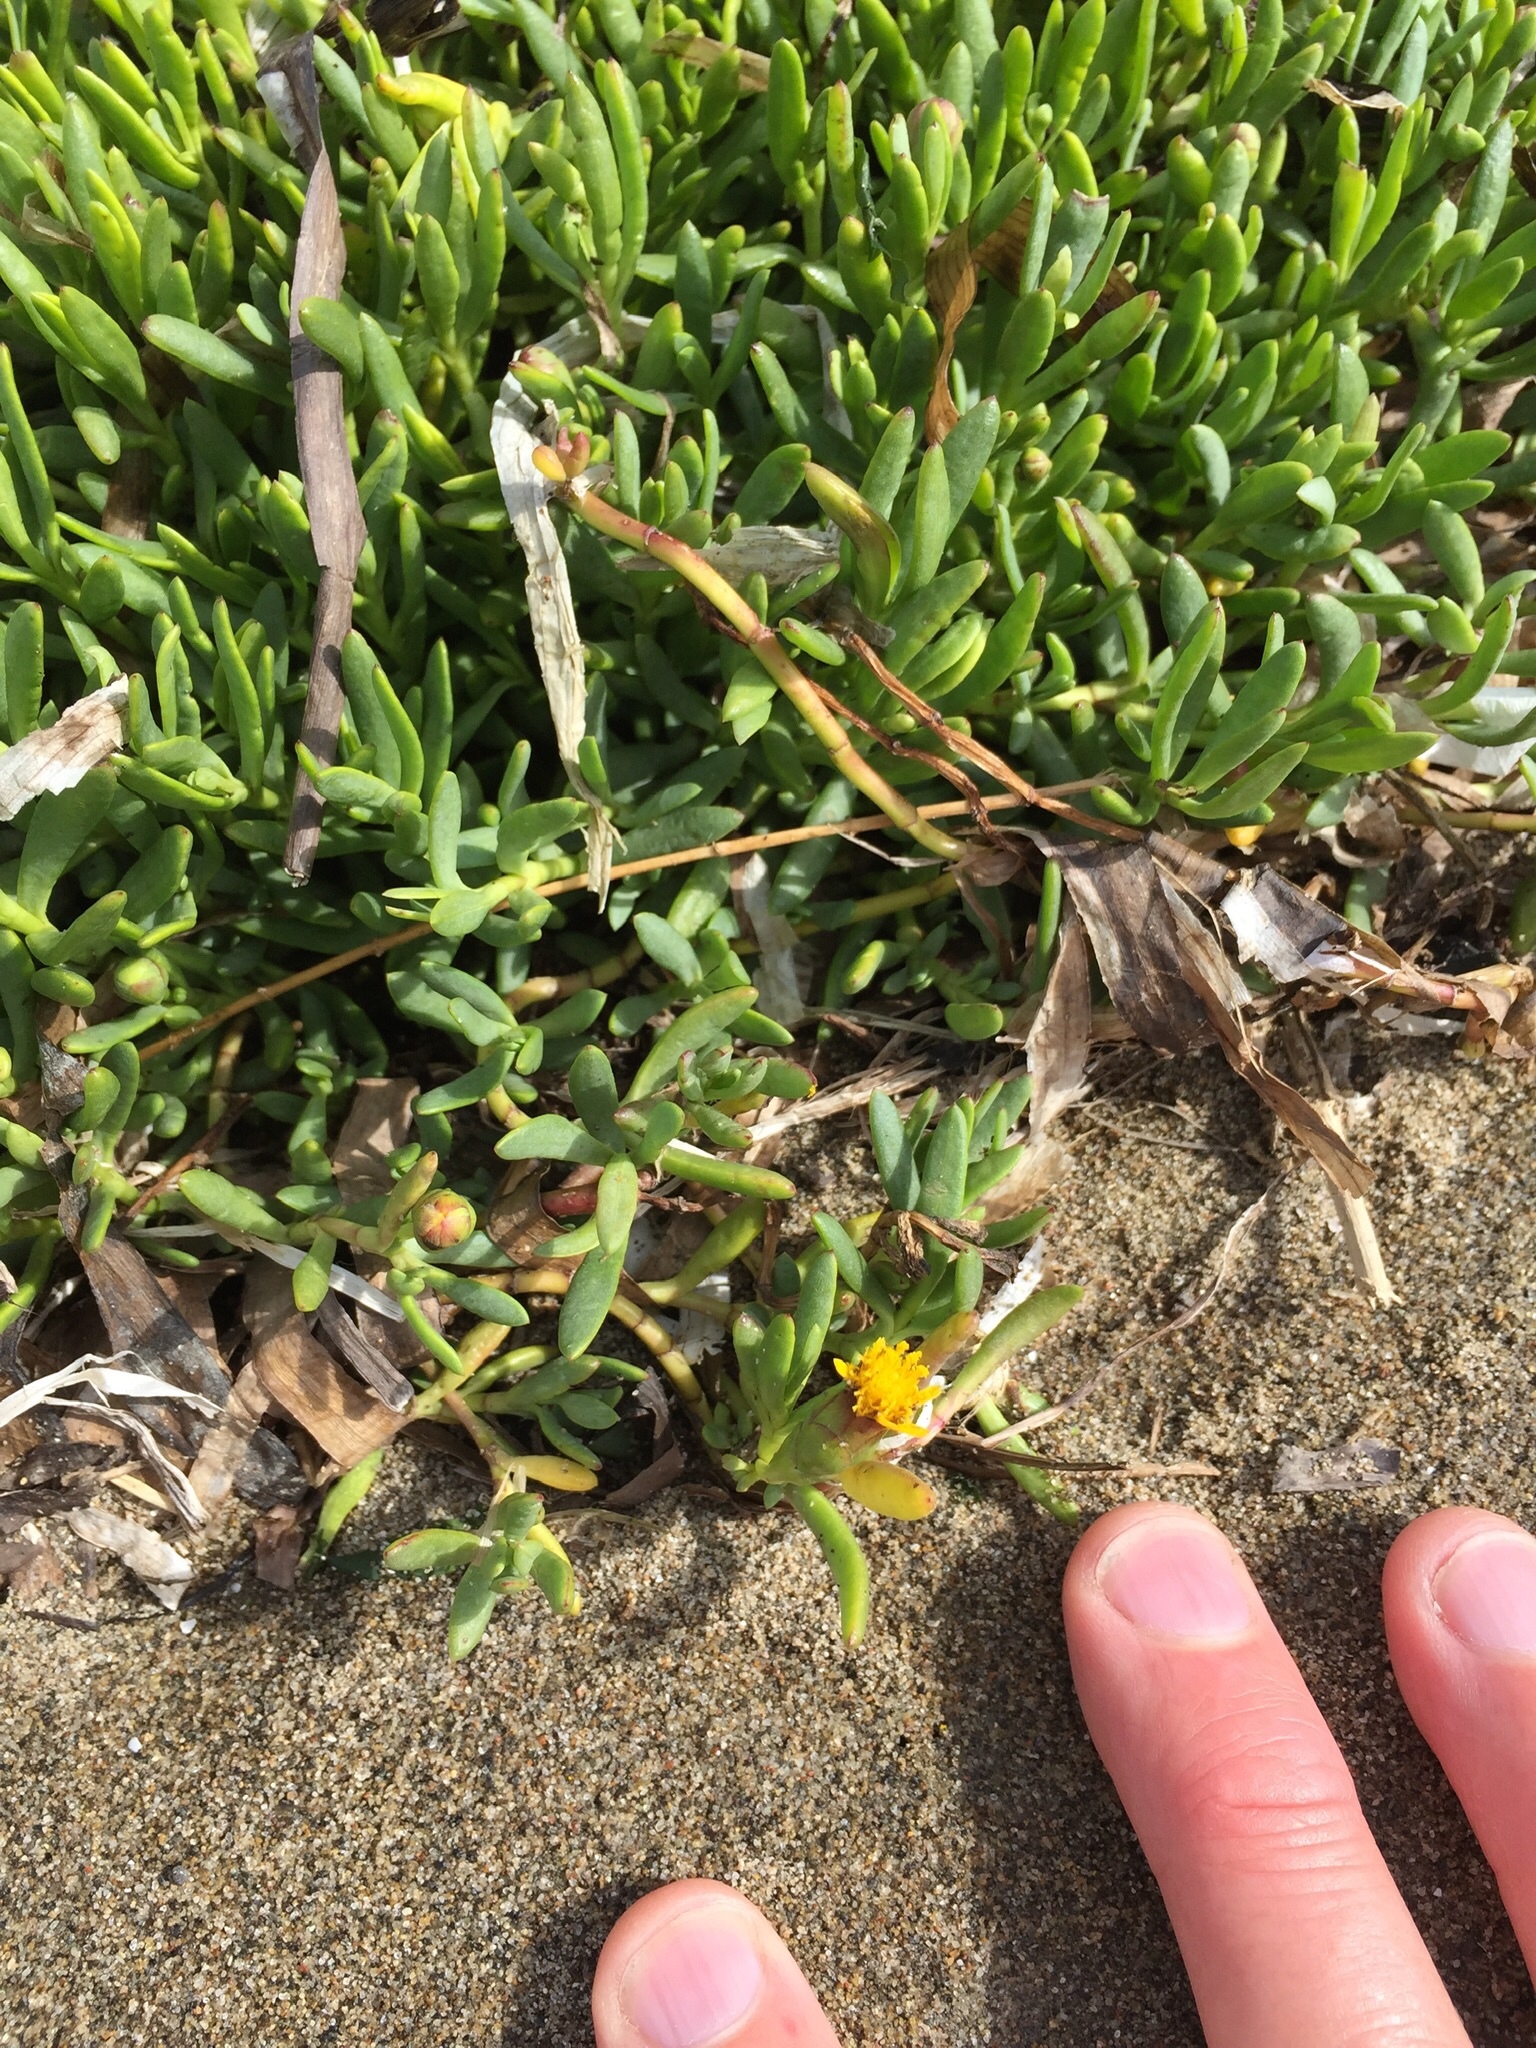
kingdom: Plantae
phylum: Tracheophyta
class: Magnoliopsida
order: Asterales
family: Asteraceae
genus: Jaumea
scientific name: Jaumea carnosa
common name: Fleshy jaumea
